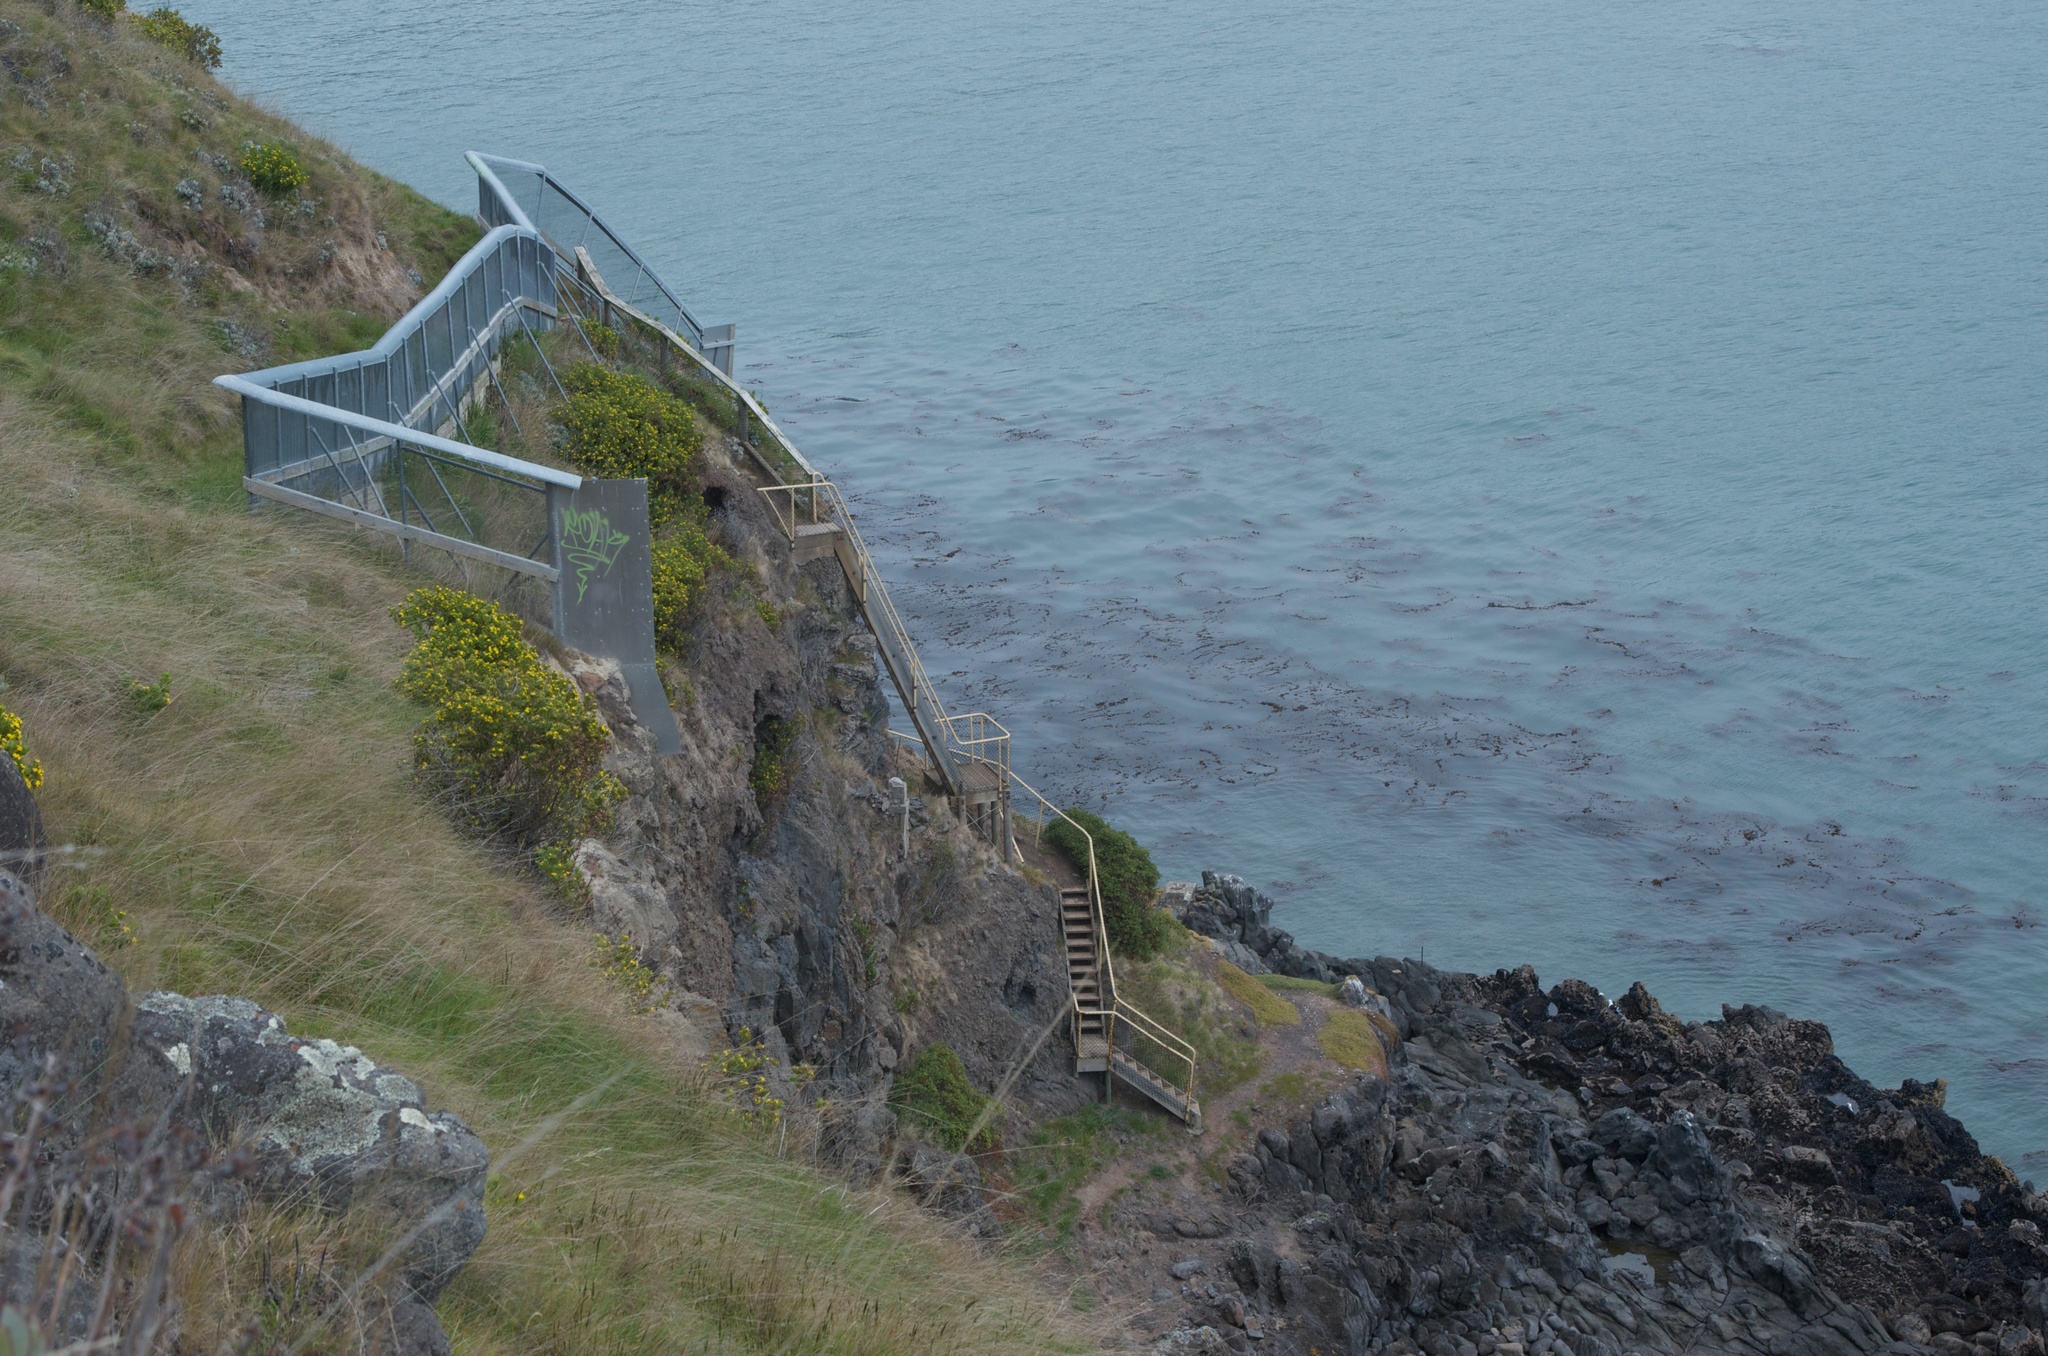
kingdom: Plantae
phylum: Tracheophyta
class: Magnoliopsida
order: Asterales
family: Asteraceae
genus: Osteospermum
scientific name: Osteospermum moniliferum
